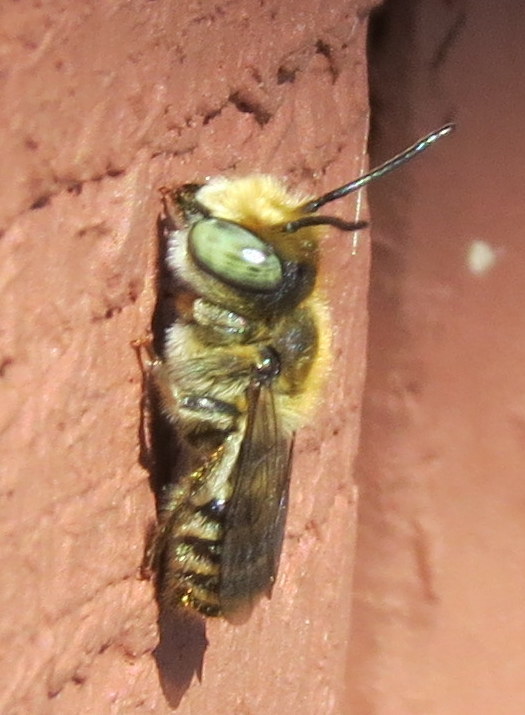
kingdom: Animalia
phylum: Arthropoda
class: Insecta
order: Hymenoptera
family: Megachilidae
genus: Megachile
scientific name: Megachile rotundata
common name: Alfalfa leafcutting bee
